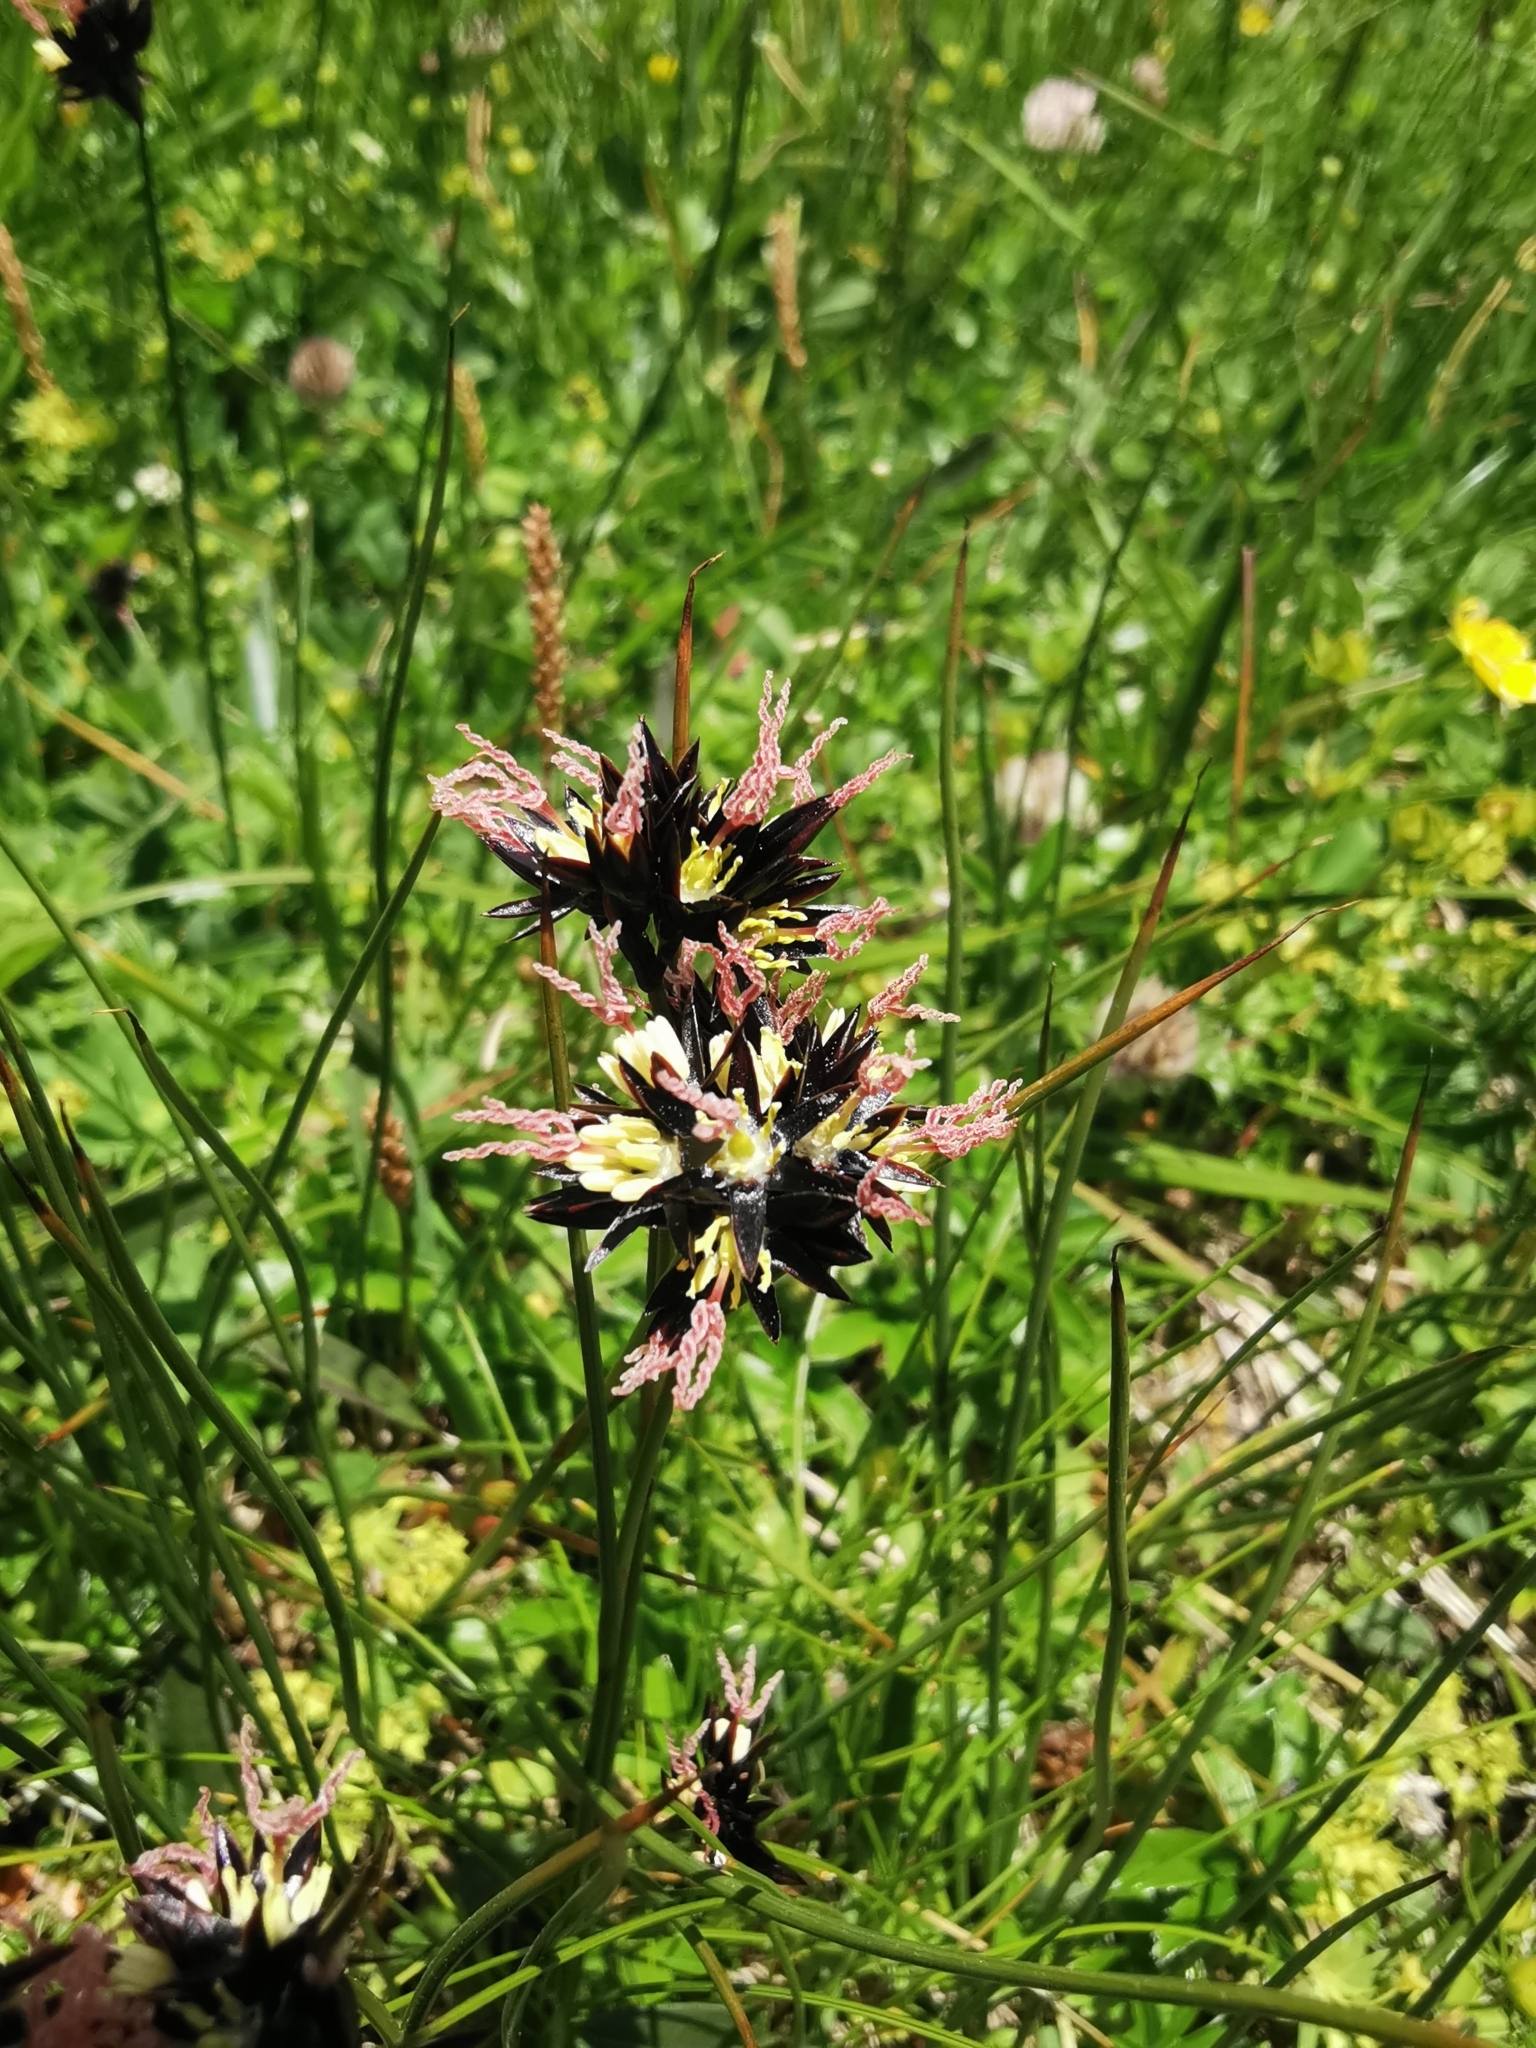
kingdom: Plantae
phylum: Tracheophyta
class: Liliopsida
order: Poales
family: Juncaceae
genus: Juncus
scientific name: Juncus jacquinii
